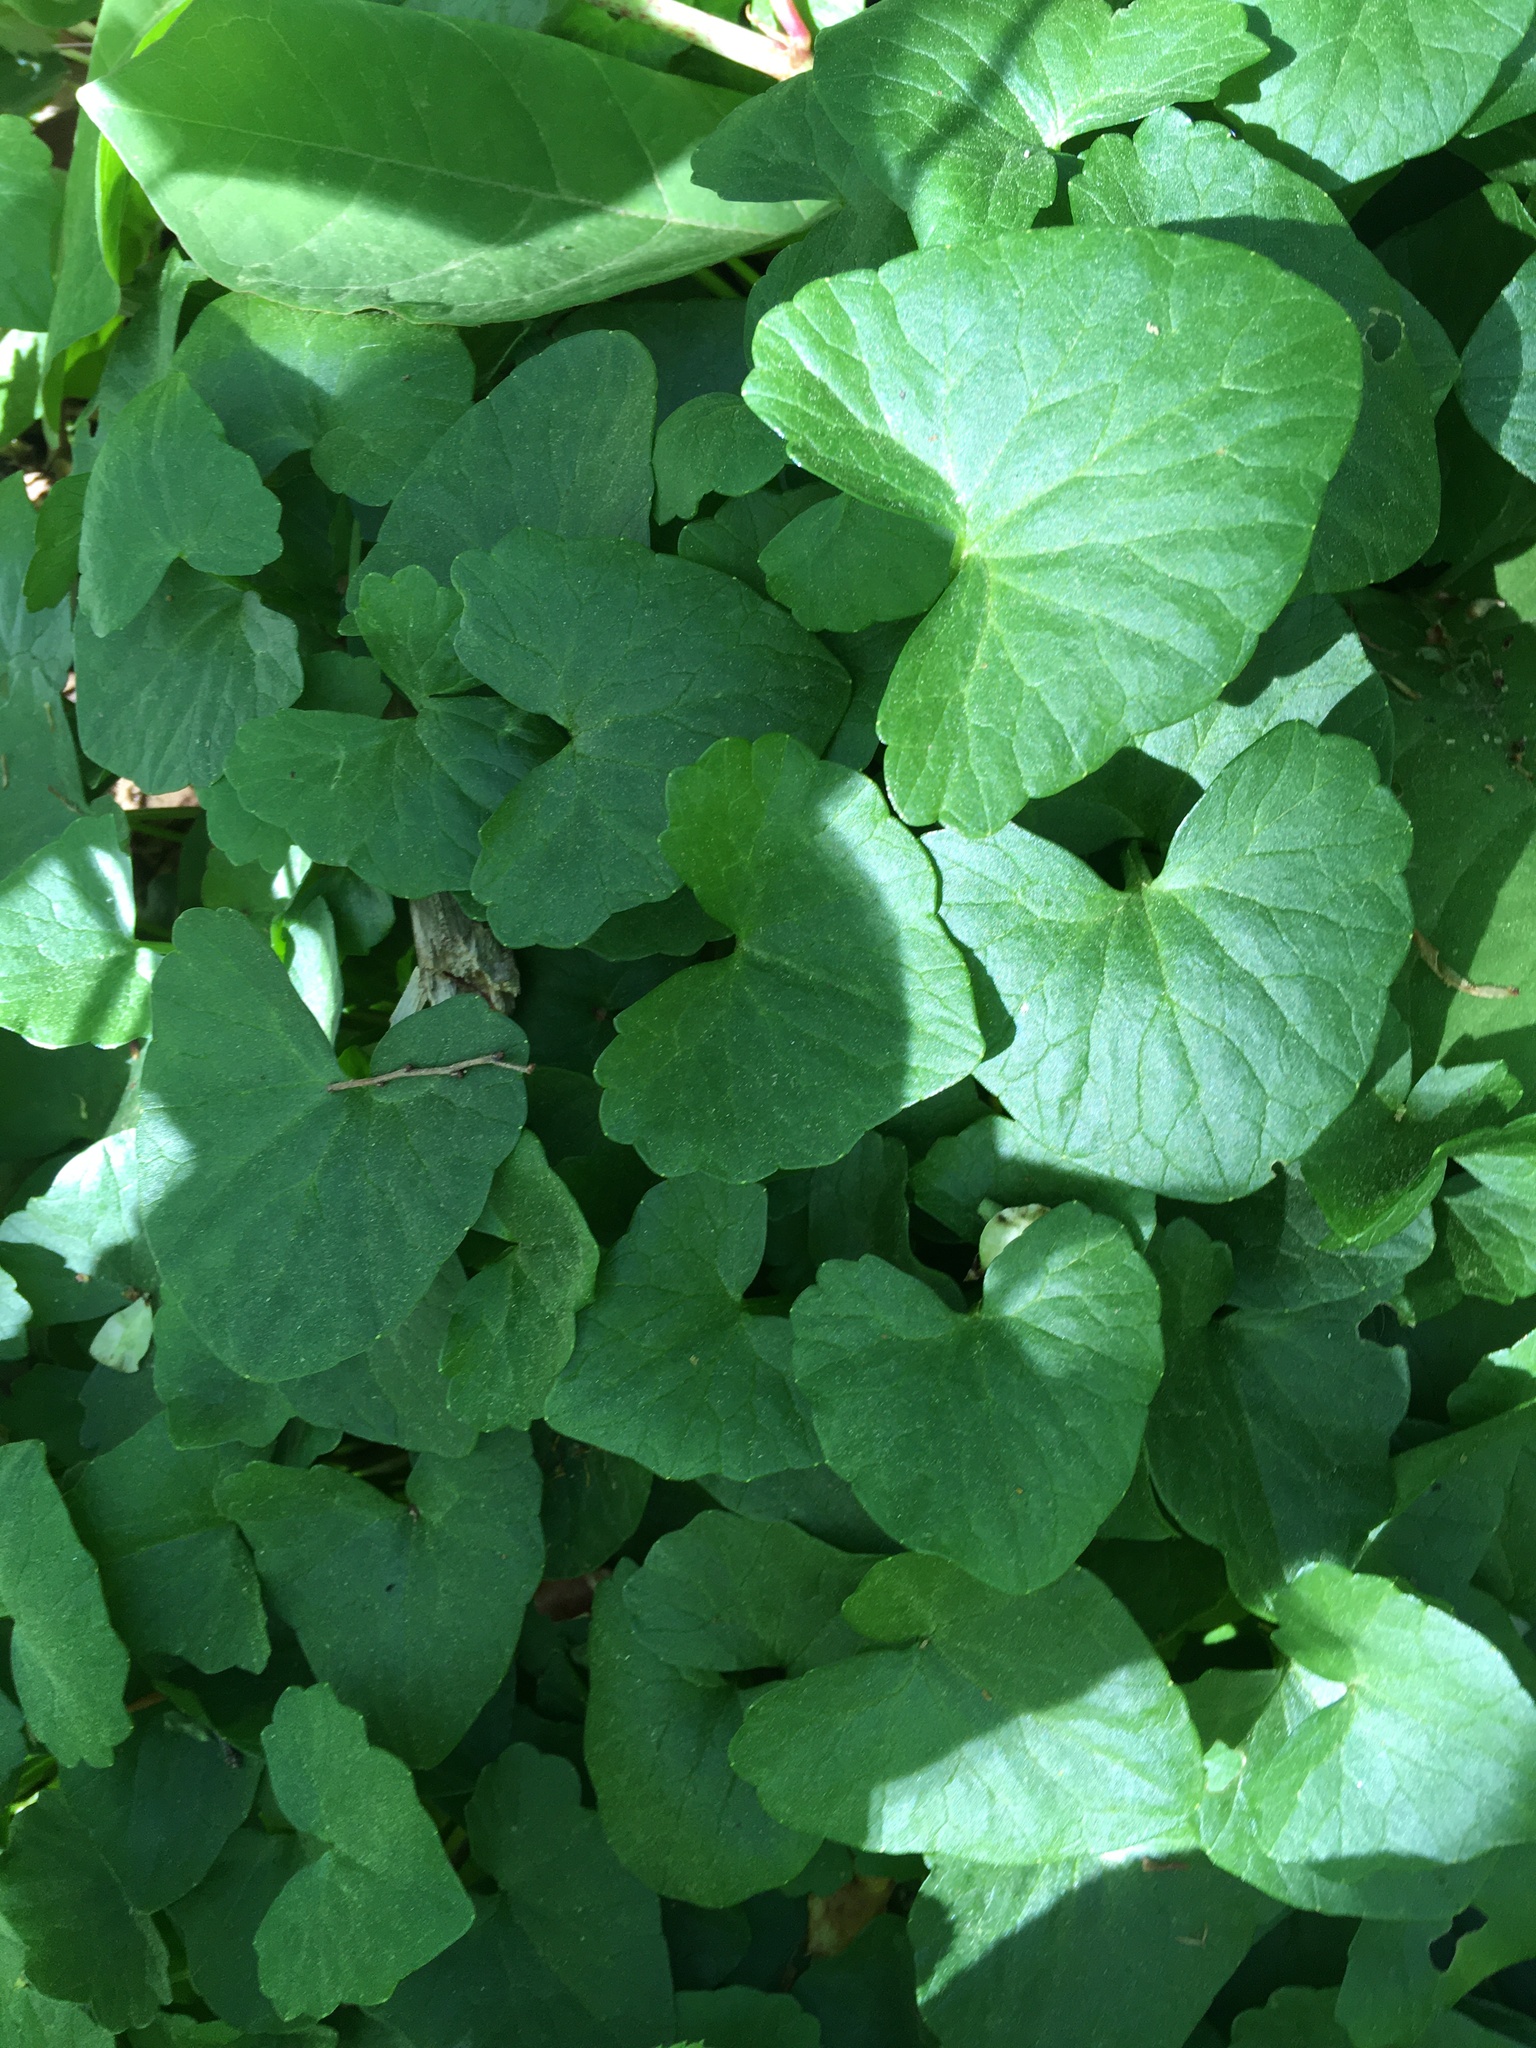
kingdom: Plantae
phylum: Tracheophyta
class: Magnoliopsida
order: Ranunculales
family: Ranunculaceae
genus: Ficaria
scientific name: Ficaria verna
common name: Lesser celandine
